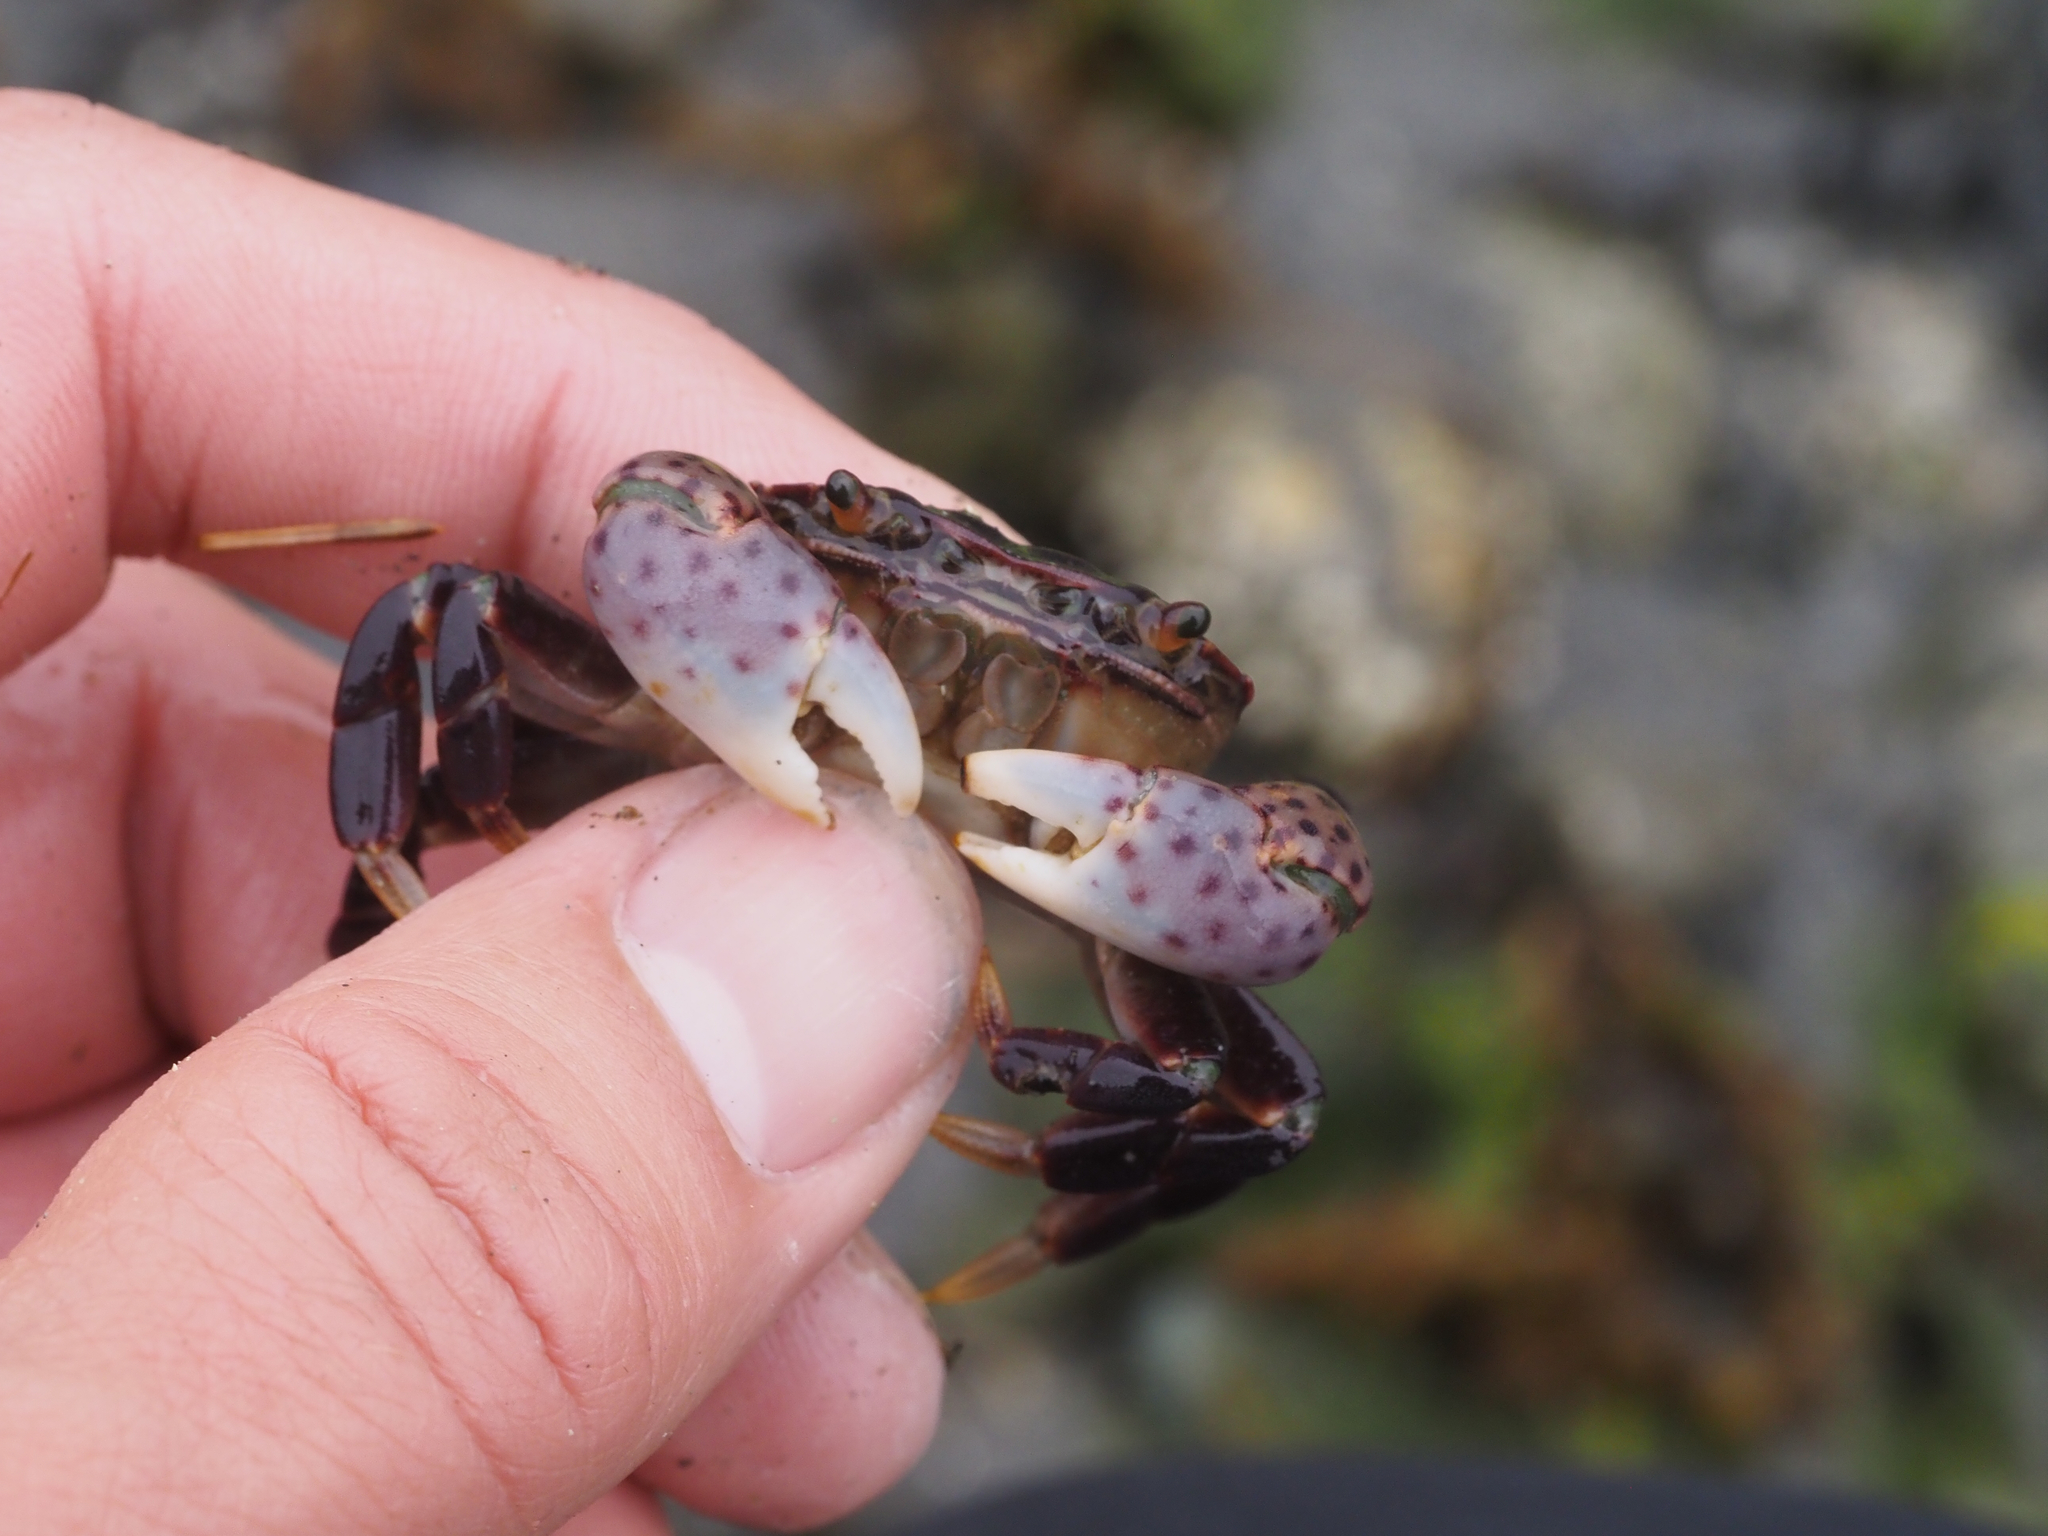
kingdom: Animalia
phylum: Arthropoda
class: Malacostraca
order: Decapoda
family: Varunidae
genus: Hemigrapsus
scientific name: Hemigrapsus nudus
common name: Purple shore crab
